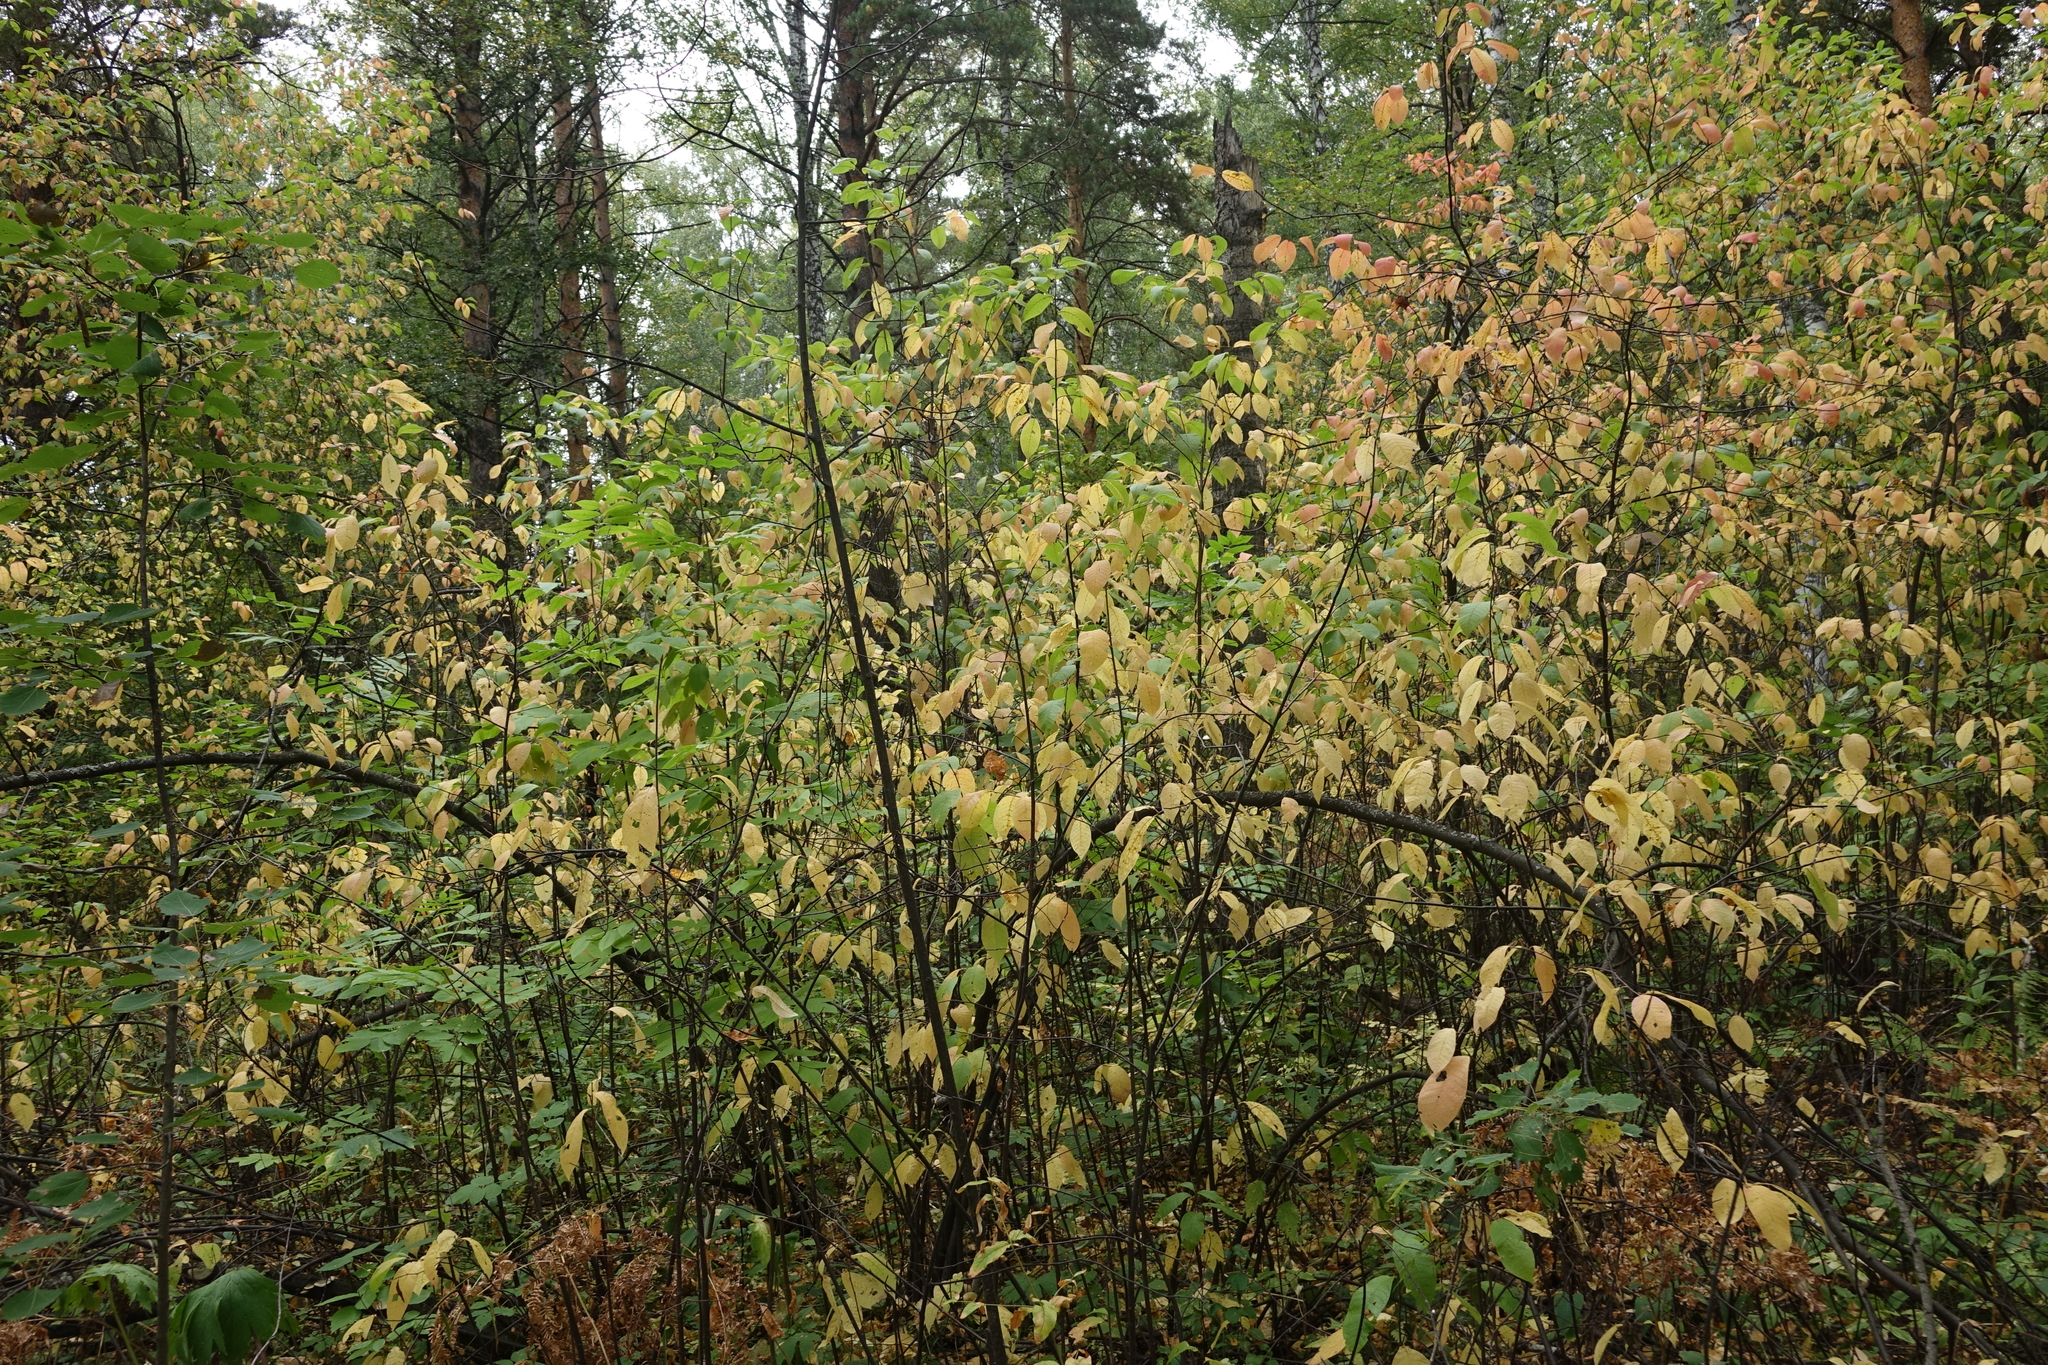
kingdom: Plantae
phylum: Tracheophyta
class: Magnoliopsida
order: Rosales
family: Rosaceae
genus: Prunus
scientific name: Prunus padus
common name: Bird cherry
